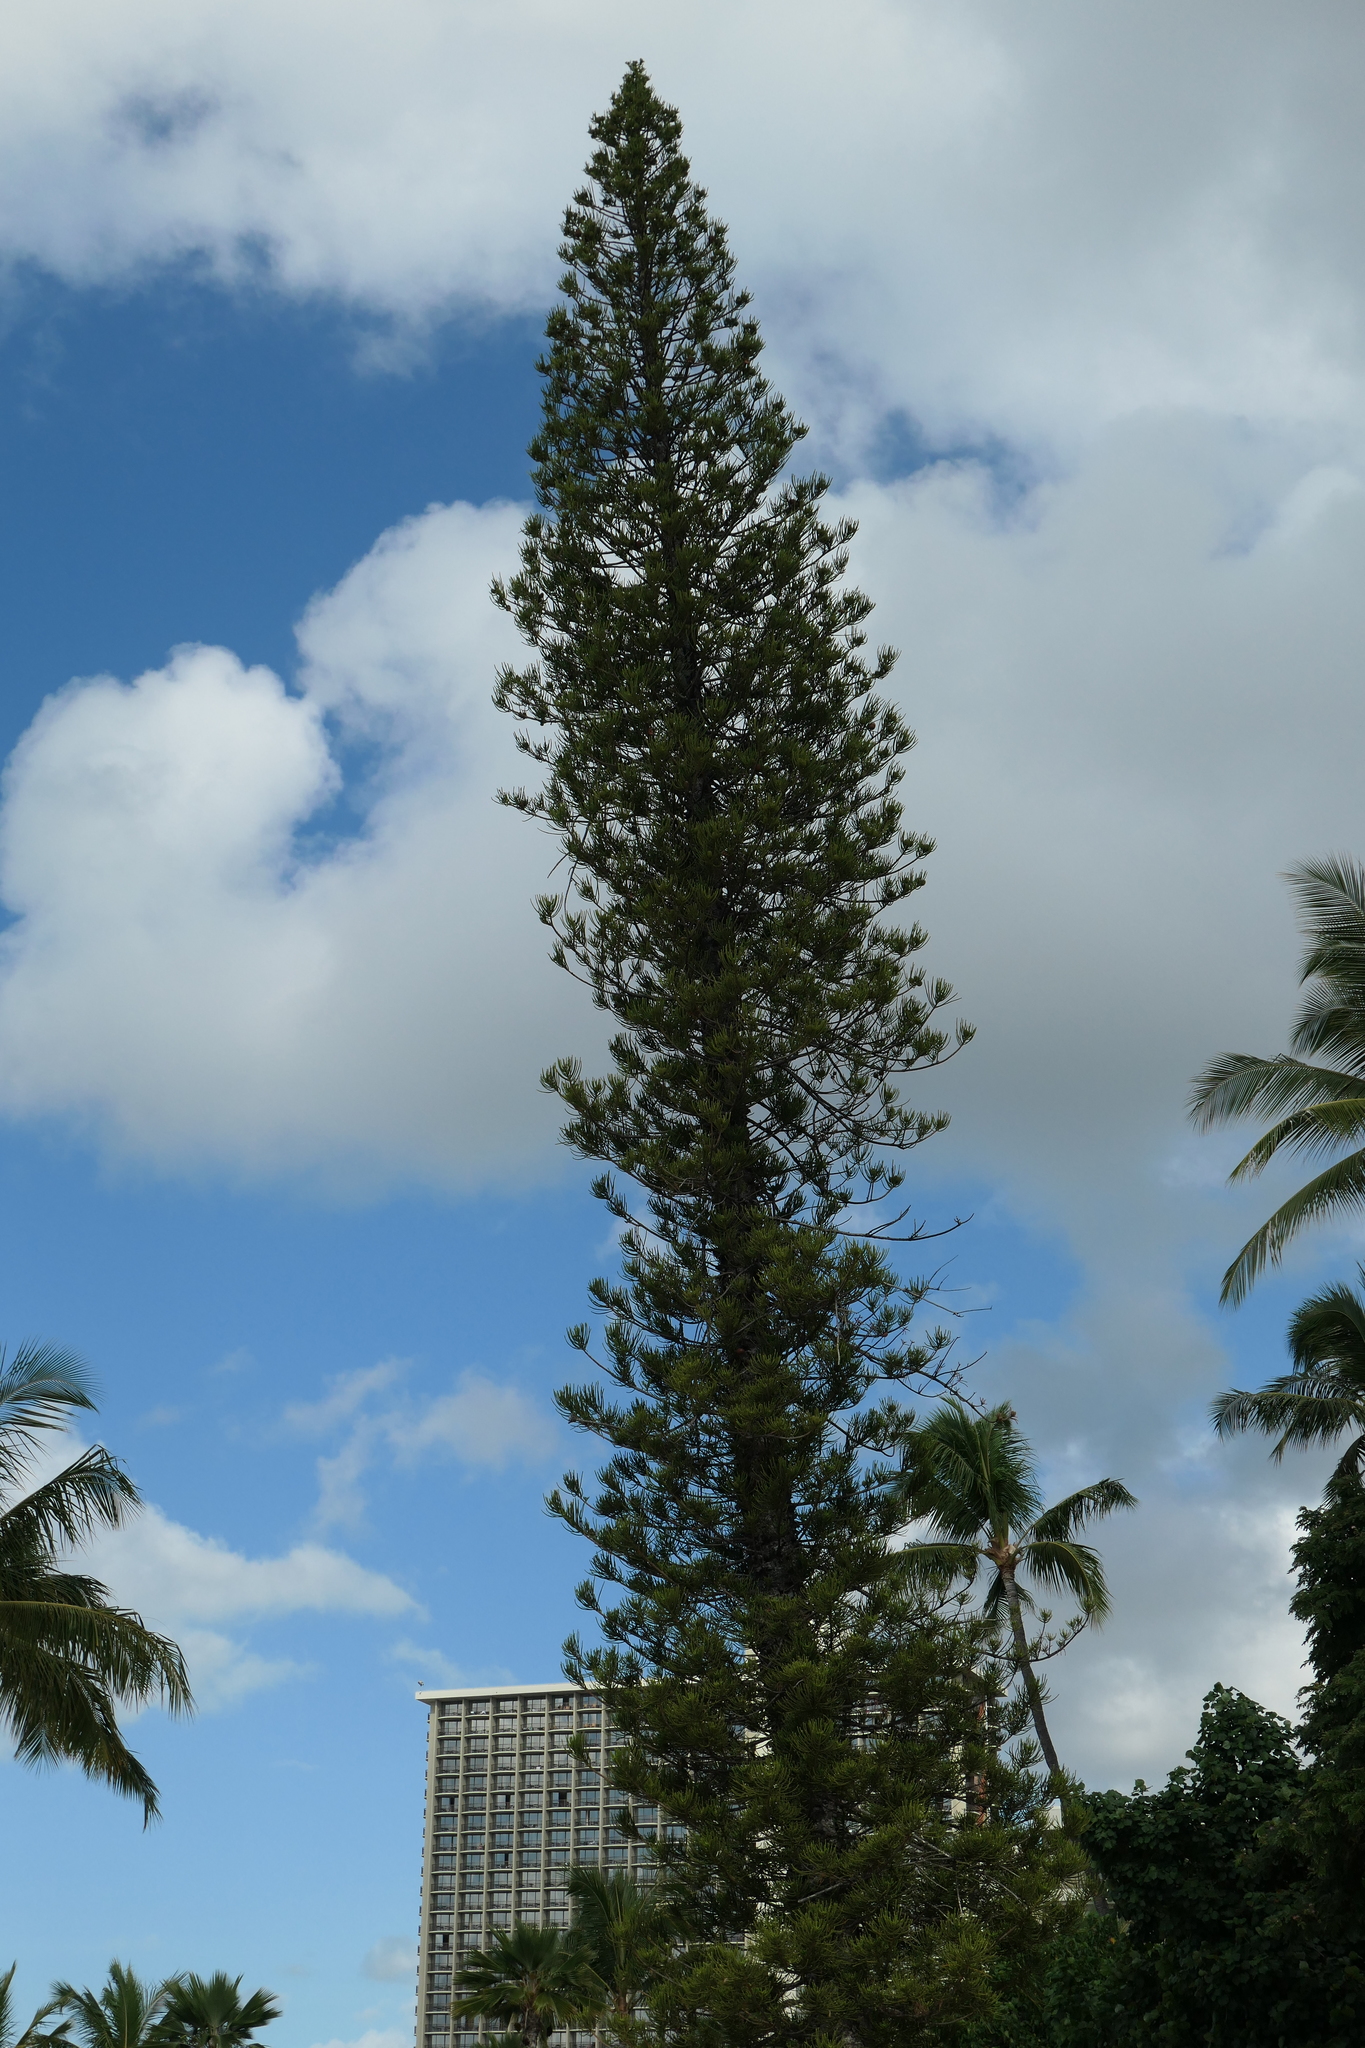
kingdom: Plantae
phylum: Tracheophyta
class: Pinopsida
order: Pinales
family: Araucariaceae
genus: Araucaria
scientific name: Araucaria columnaris
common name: Coral reef araucaria
